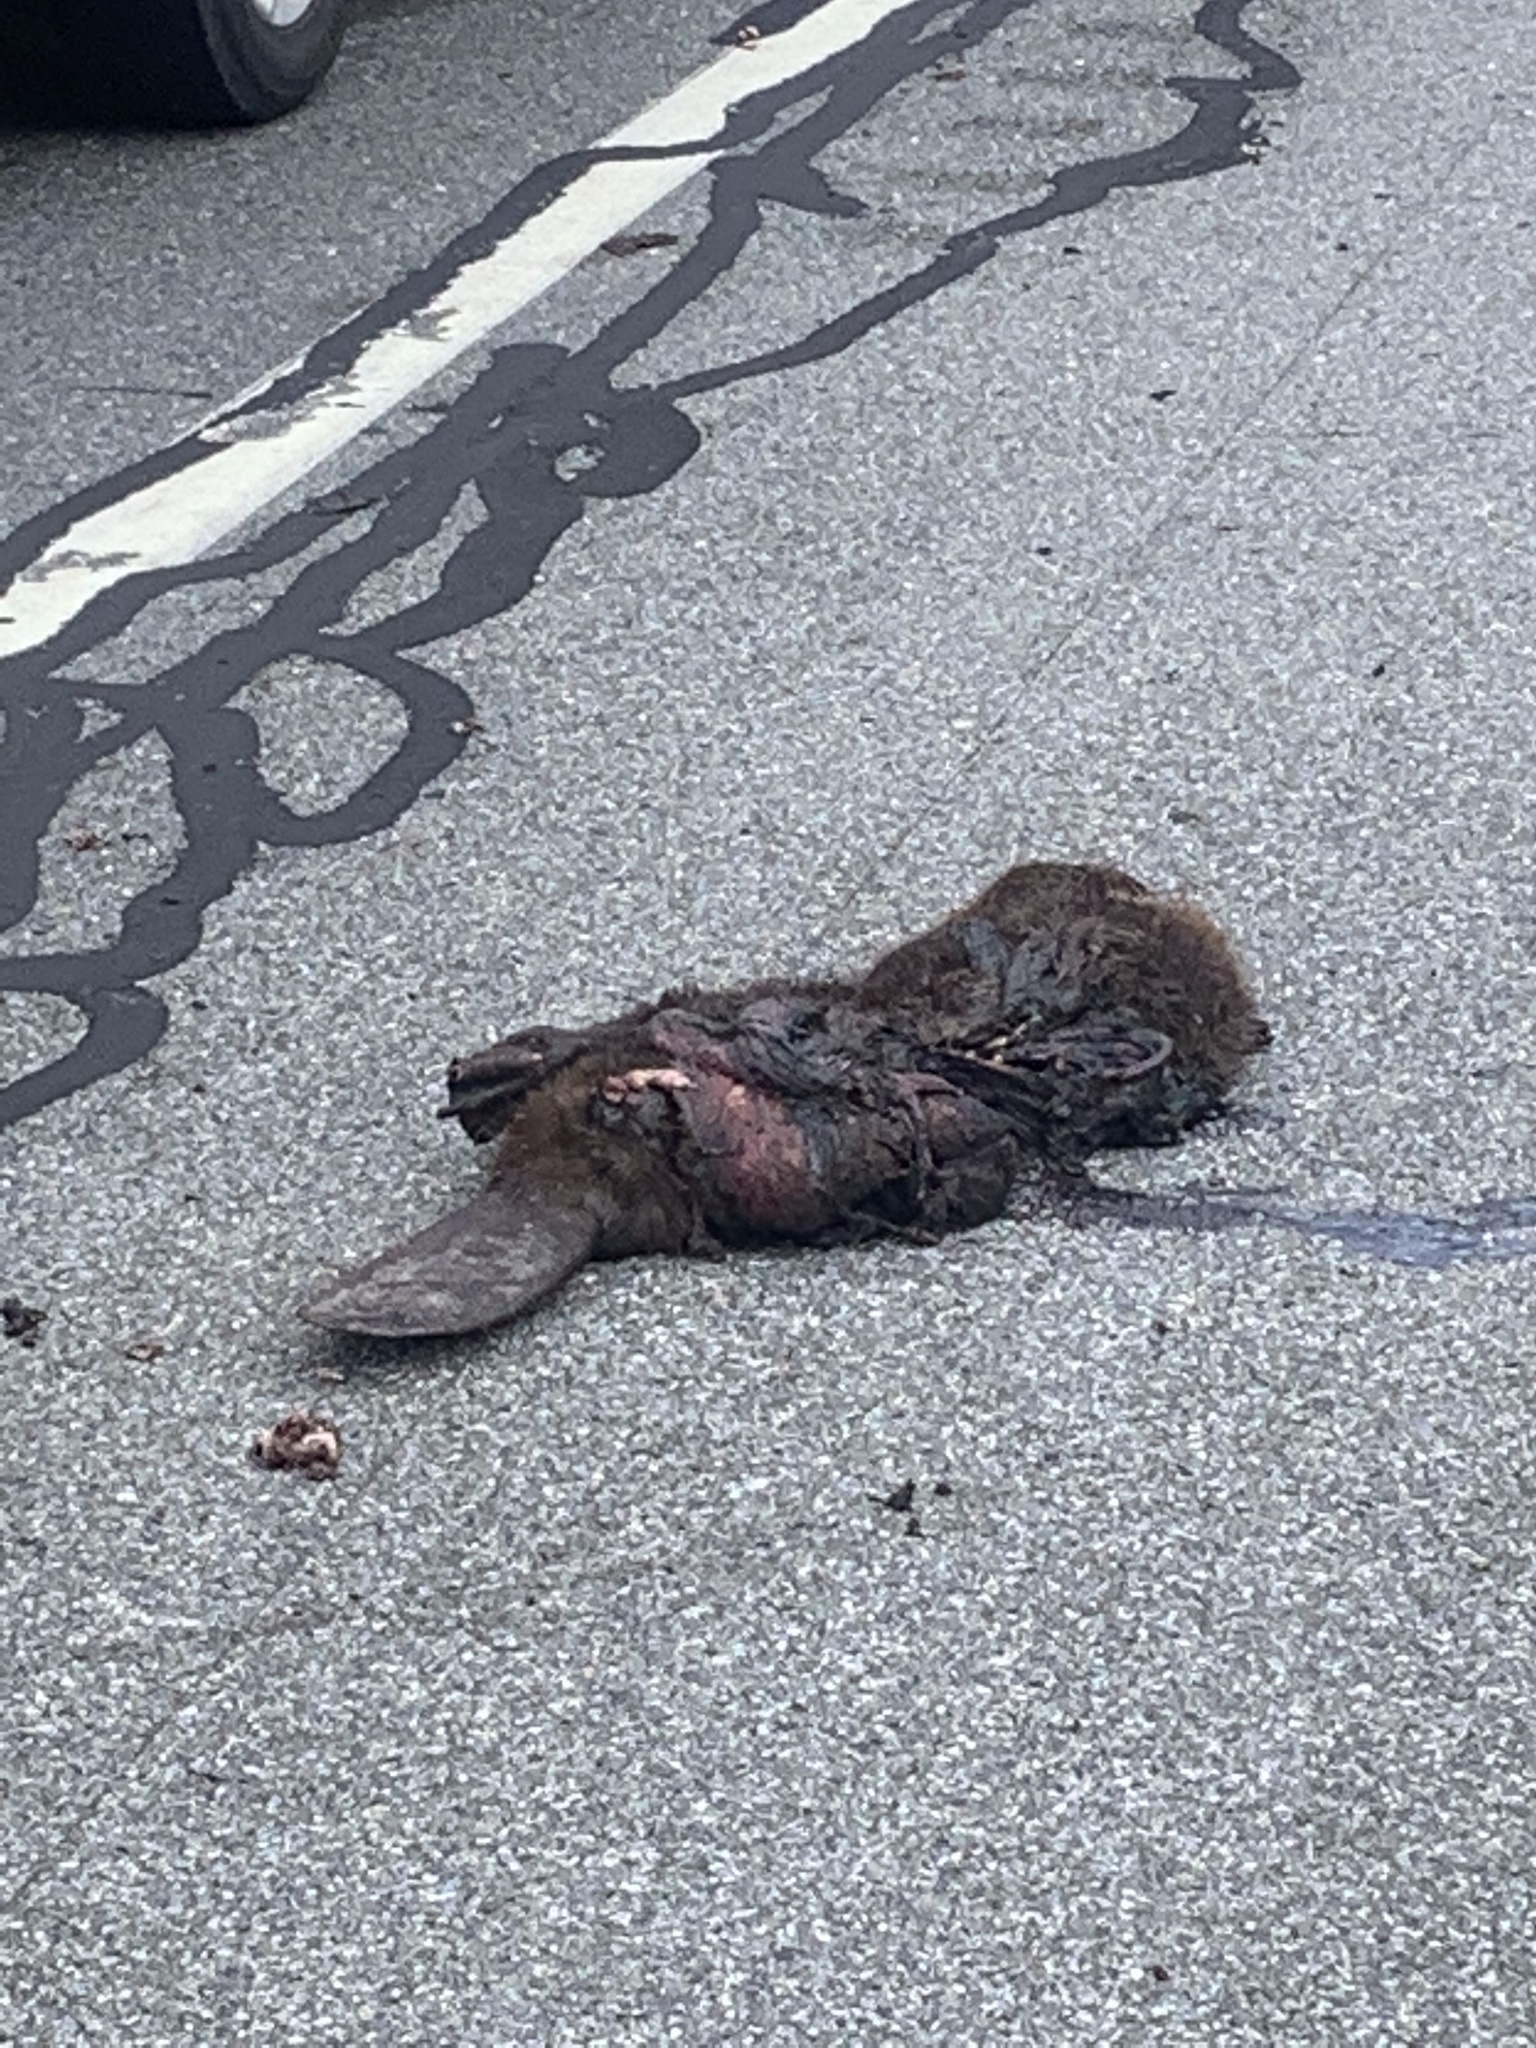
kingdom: Animalia
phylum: Chordata
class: Mammalia
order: Rodentia
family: Castoridae
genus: Castor
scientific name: Castor canadensis
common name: American beaver
